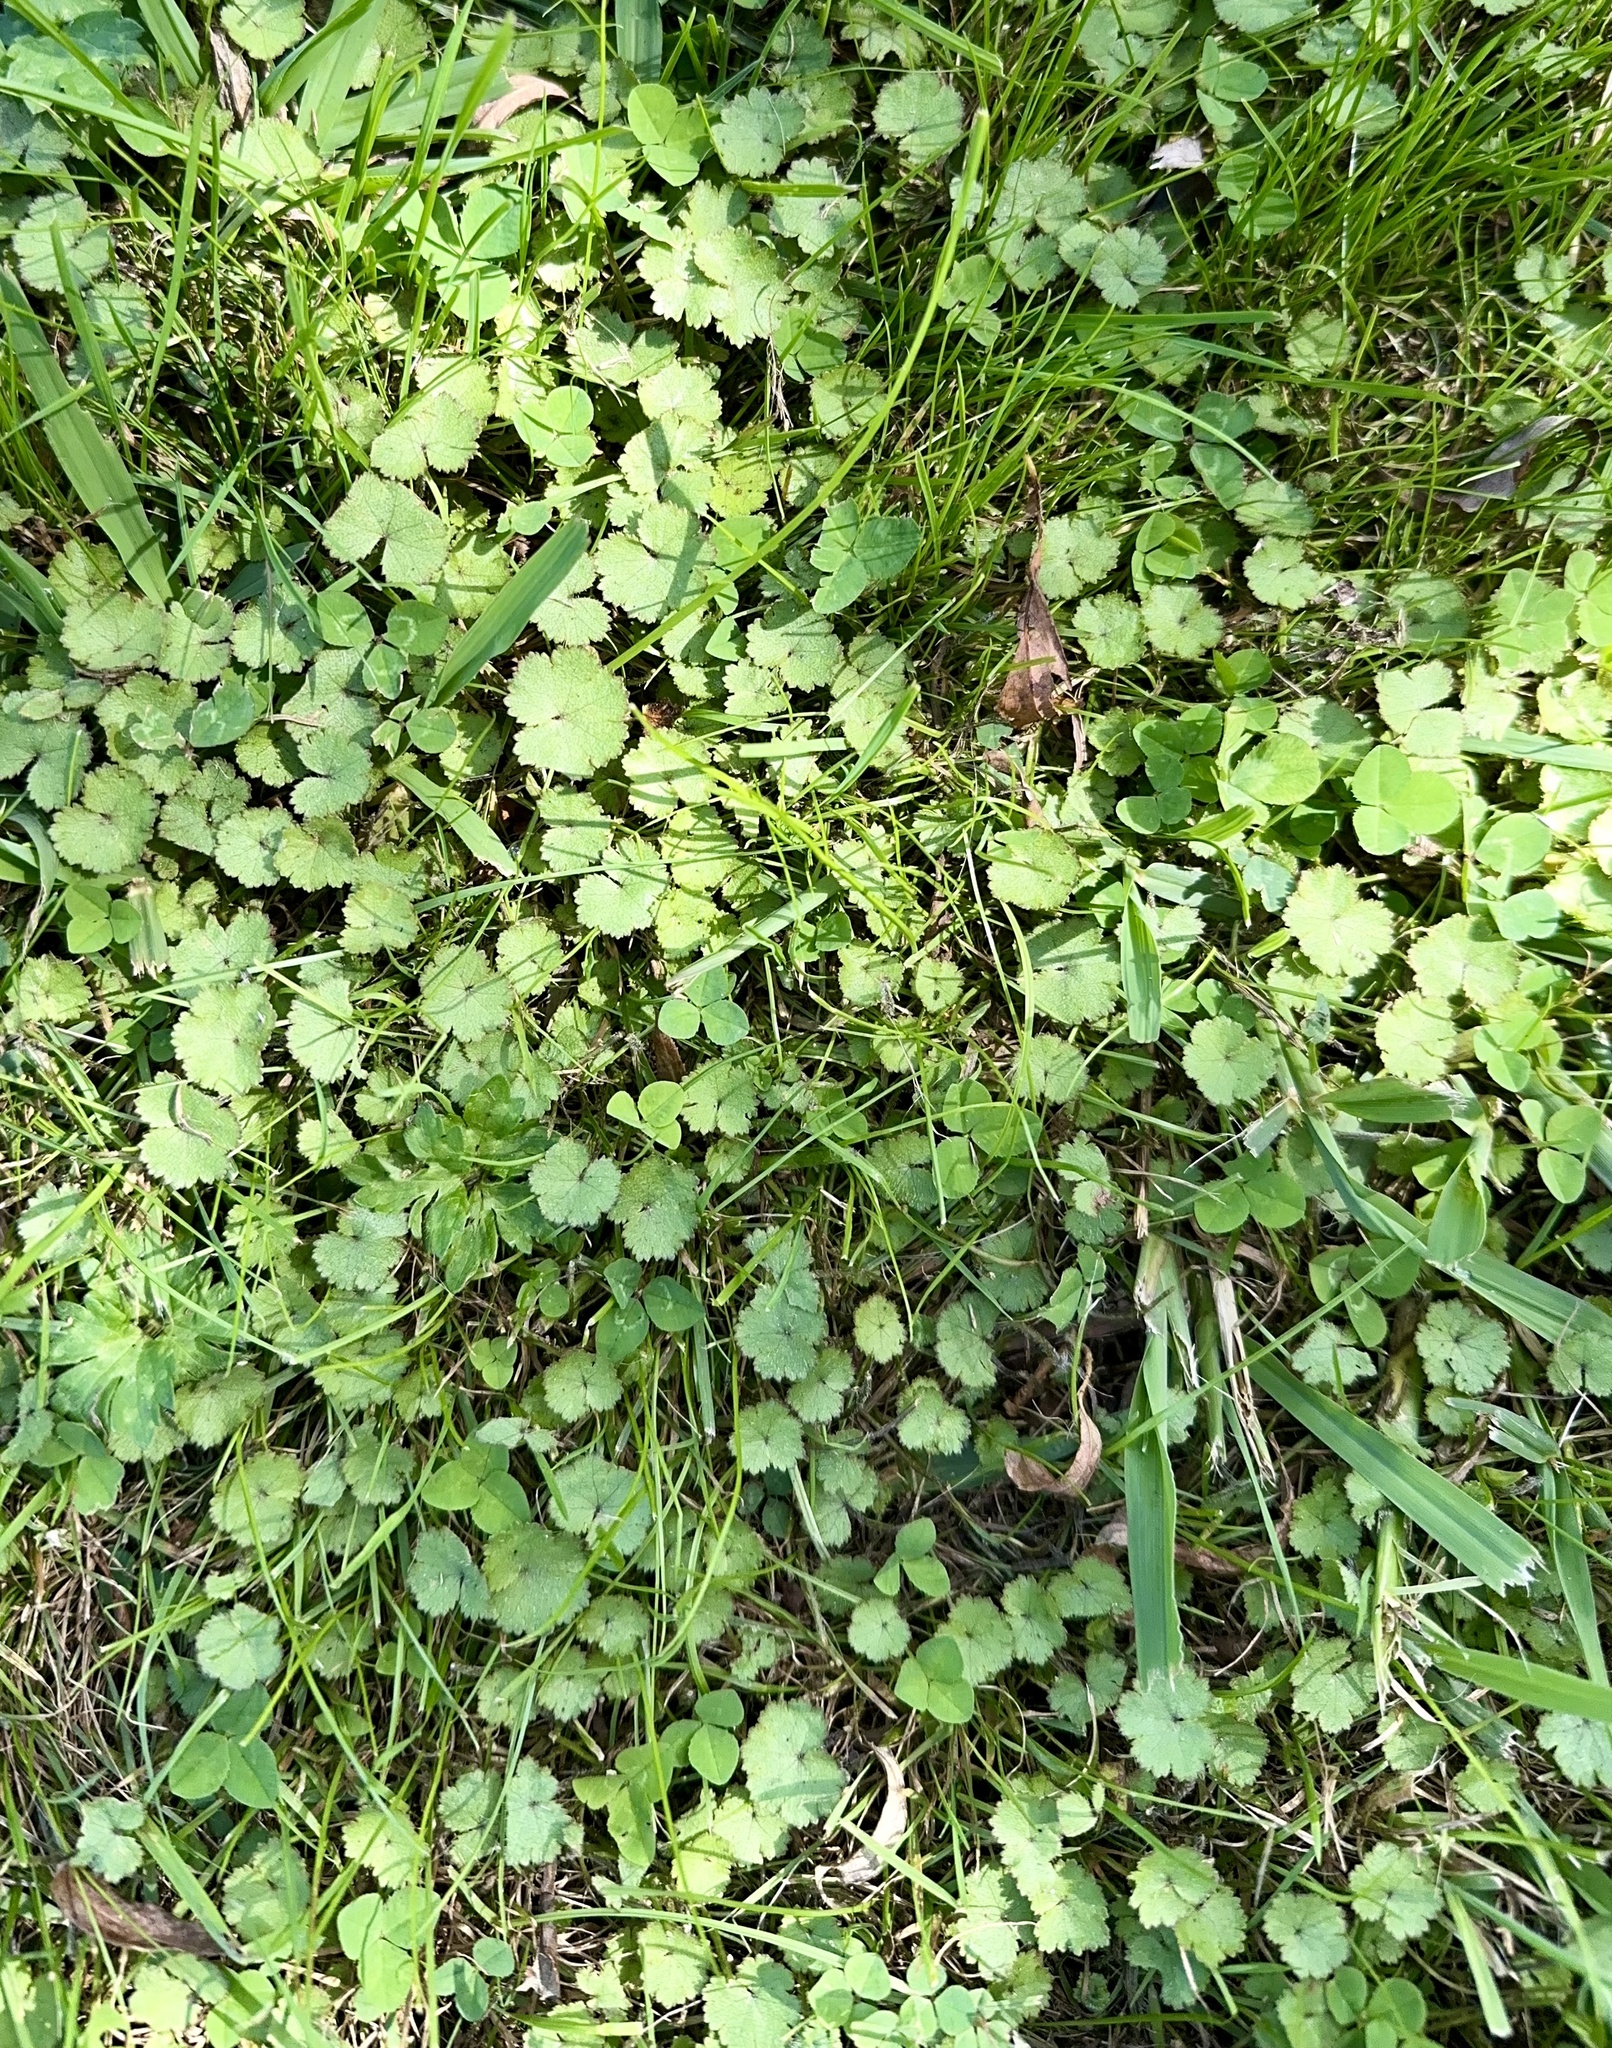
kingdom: Plantae
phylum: Tracheophyta
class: Magnoliopsida
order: Apiales
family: Araliaceae
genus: Hydrocotyle
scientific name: Hydrocotyle moschata
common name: Hairy pennywort
